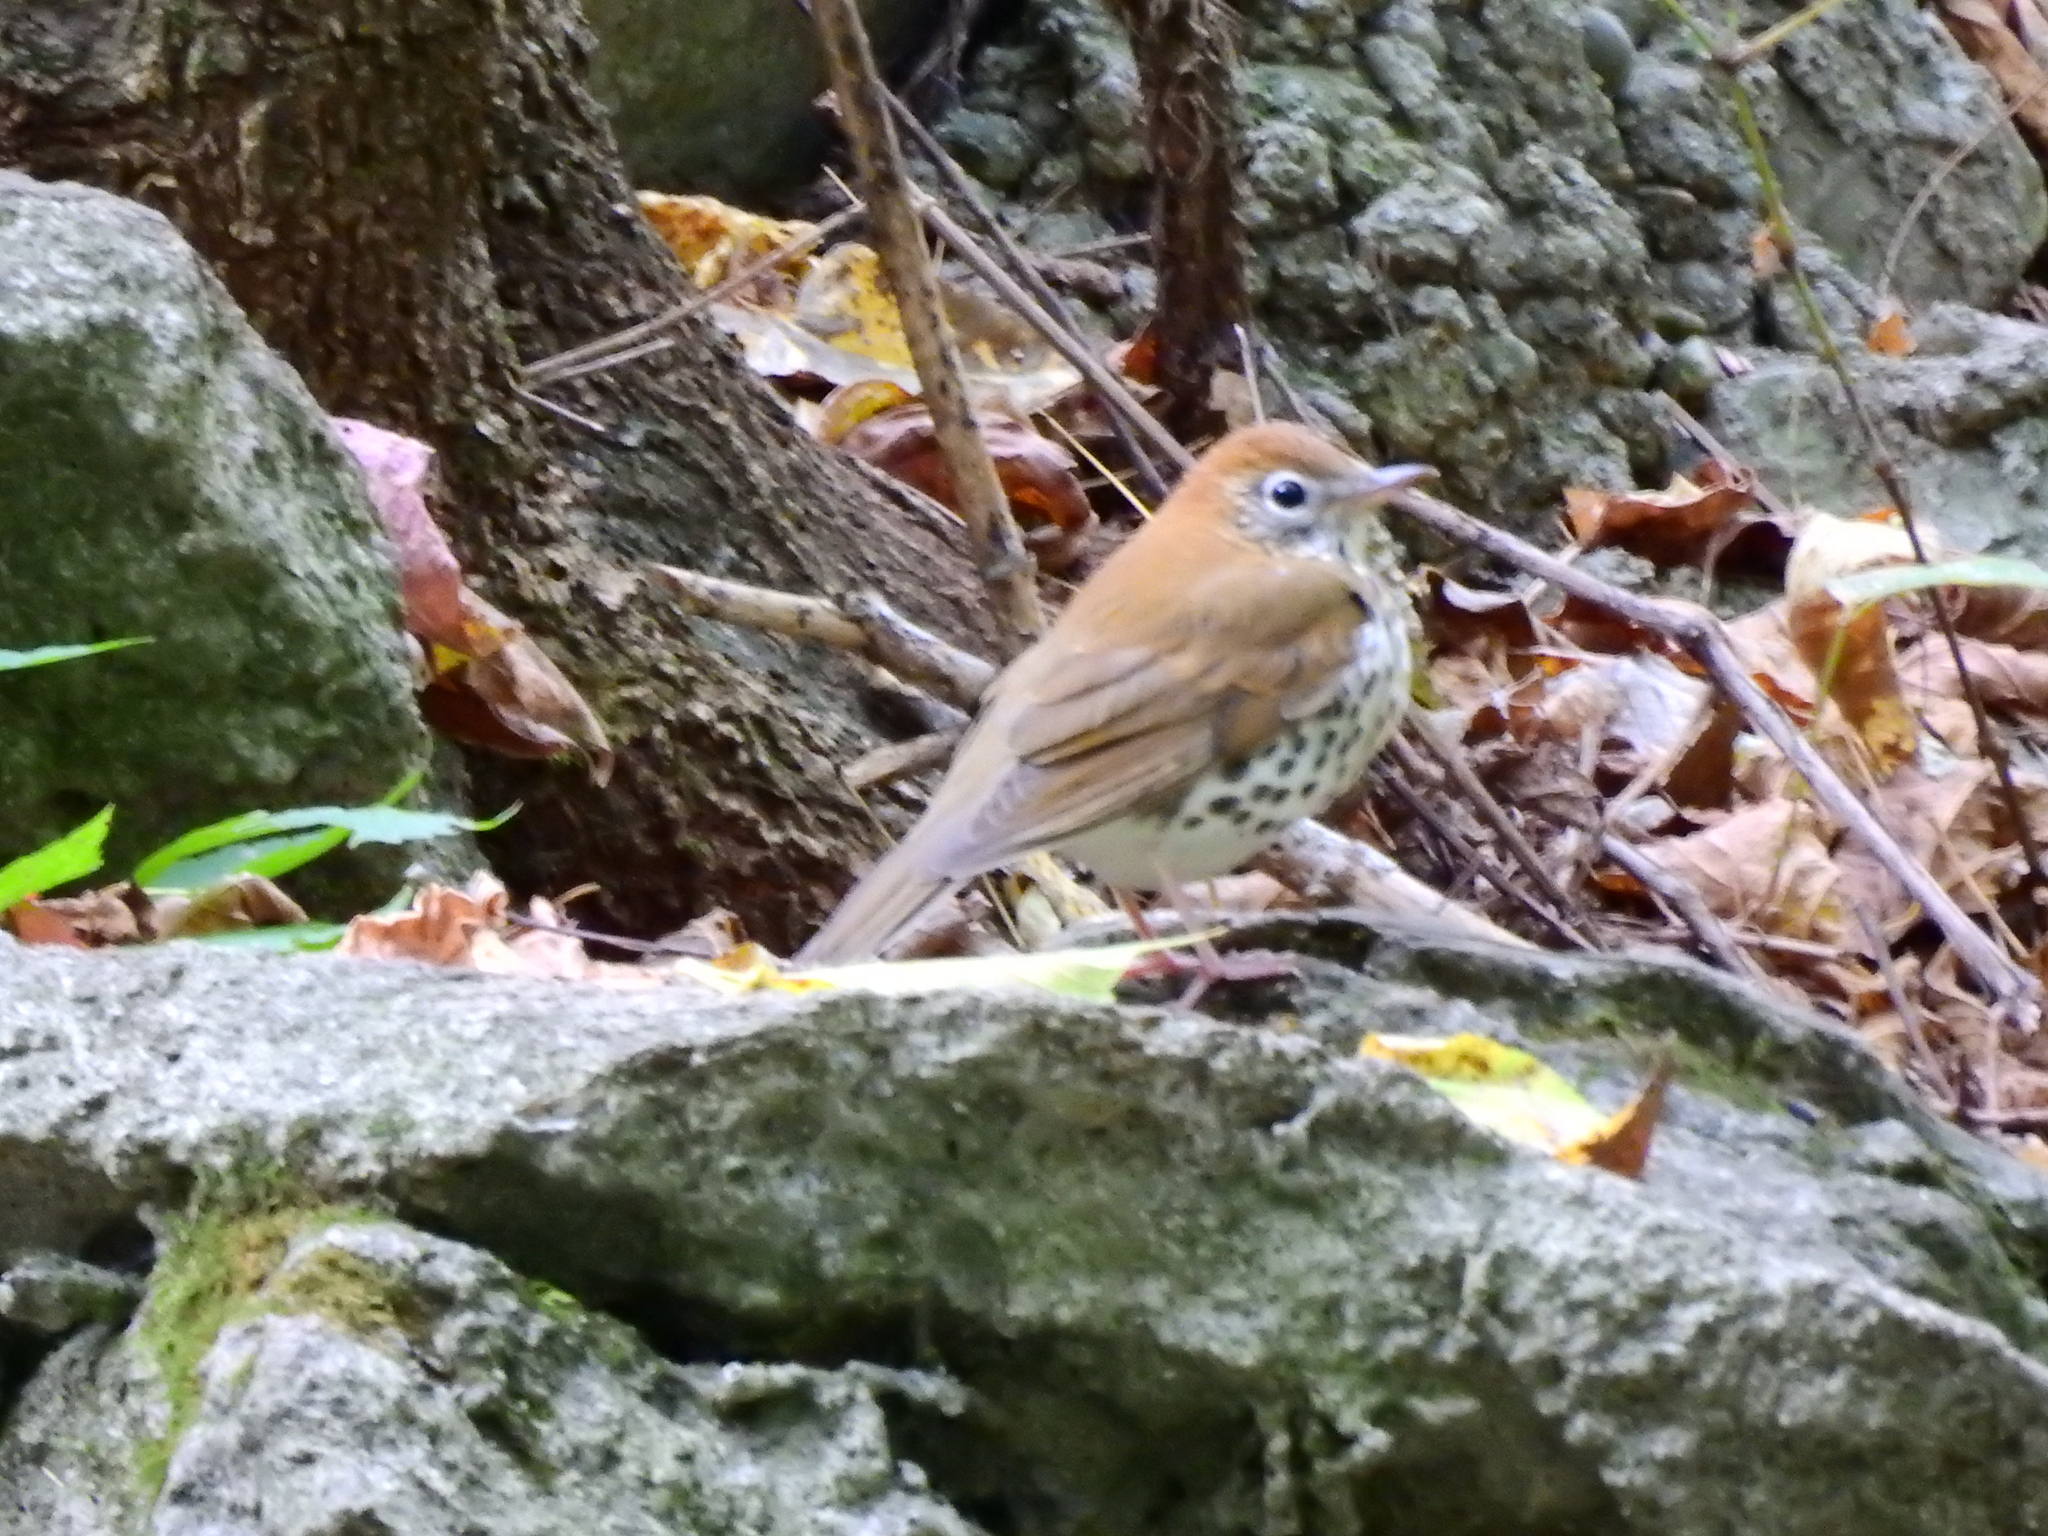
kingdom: Animalia
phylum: Chordata
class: Aves
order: Passeriformes
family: Turdidae
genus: Hylocichla
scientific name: Hylocichla mustelina
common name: Wood thrush
